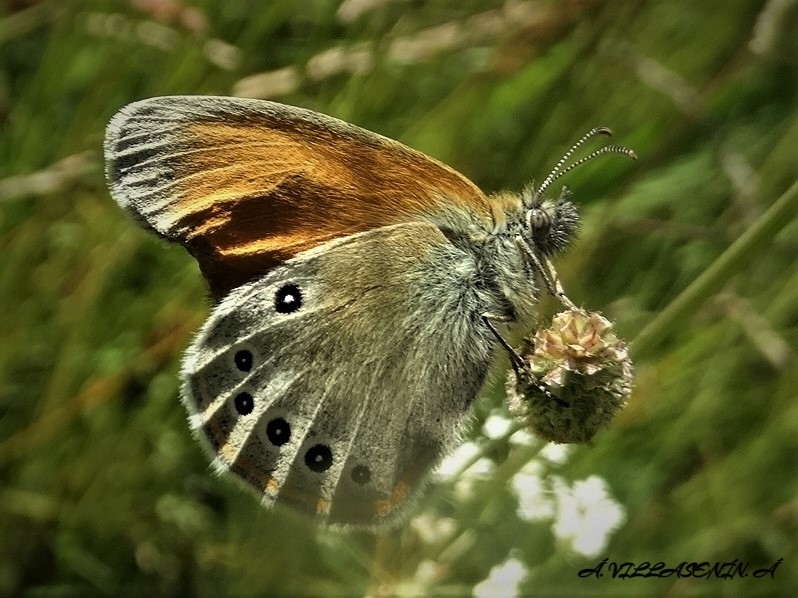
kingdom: Animalia
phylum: Arthropoda
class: Insecta
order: Lepidoptera
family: Nymphalidae
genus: Coenonympha
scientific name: Coenonympha iphis
